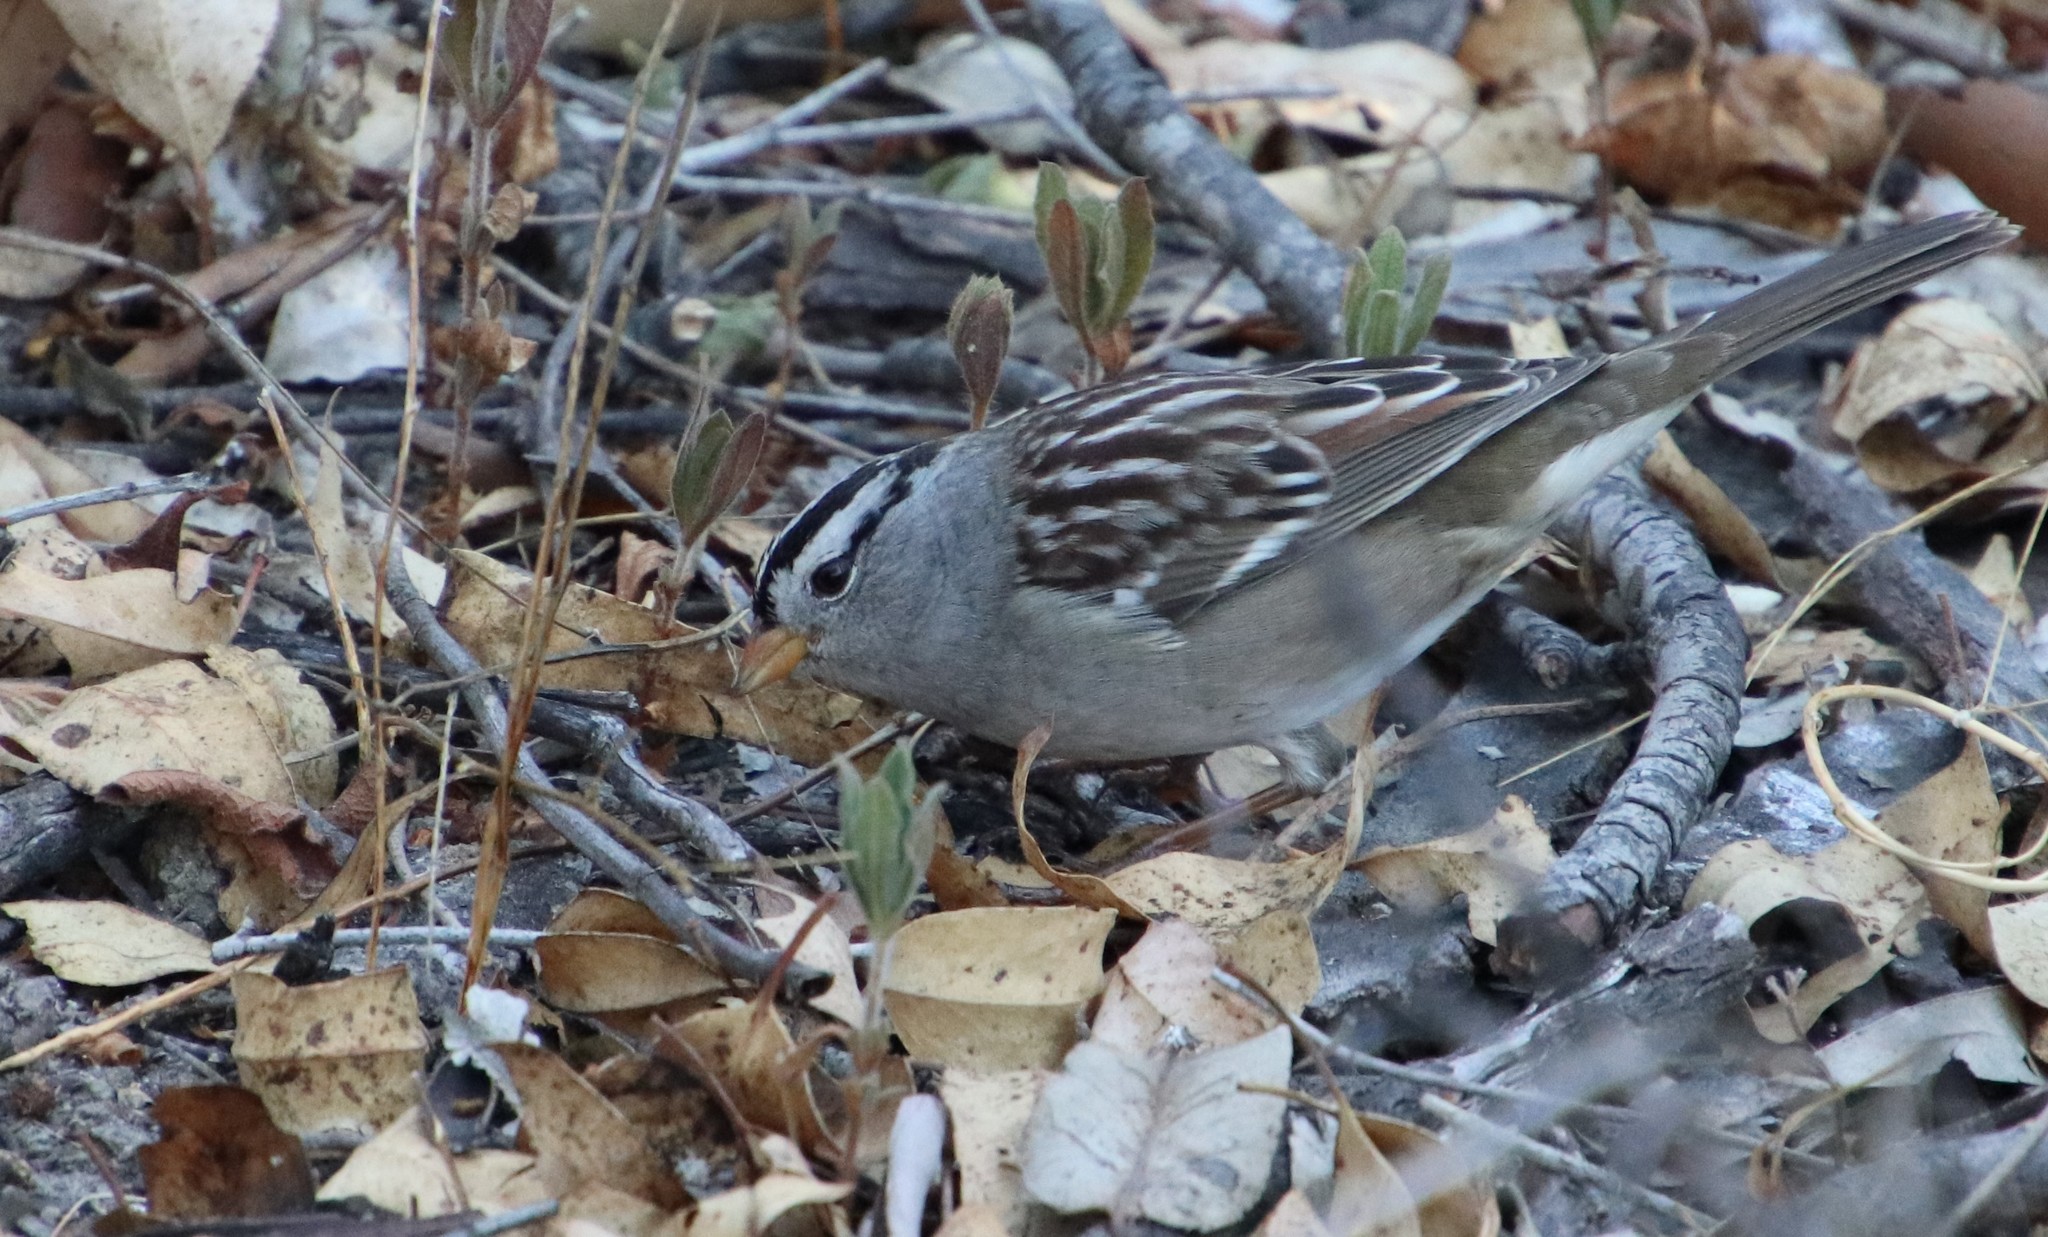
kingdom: Animalia
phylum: Chordata
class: Aves
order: Passeriformes
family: Passerellidae
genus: Zonotrichia
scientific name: Zonotrichia leucophrys
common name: White-crowned sparrow
